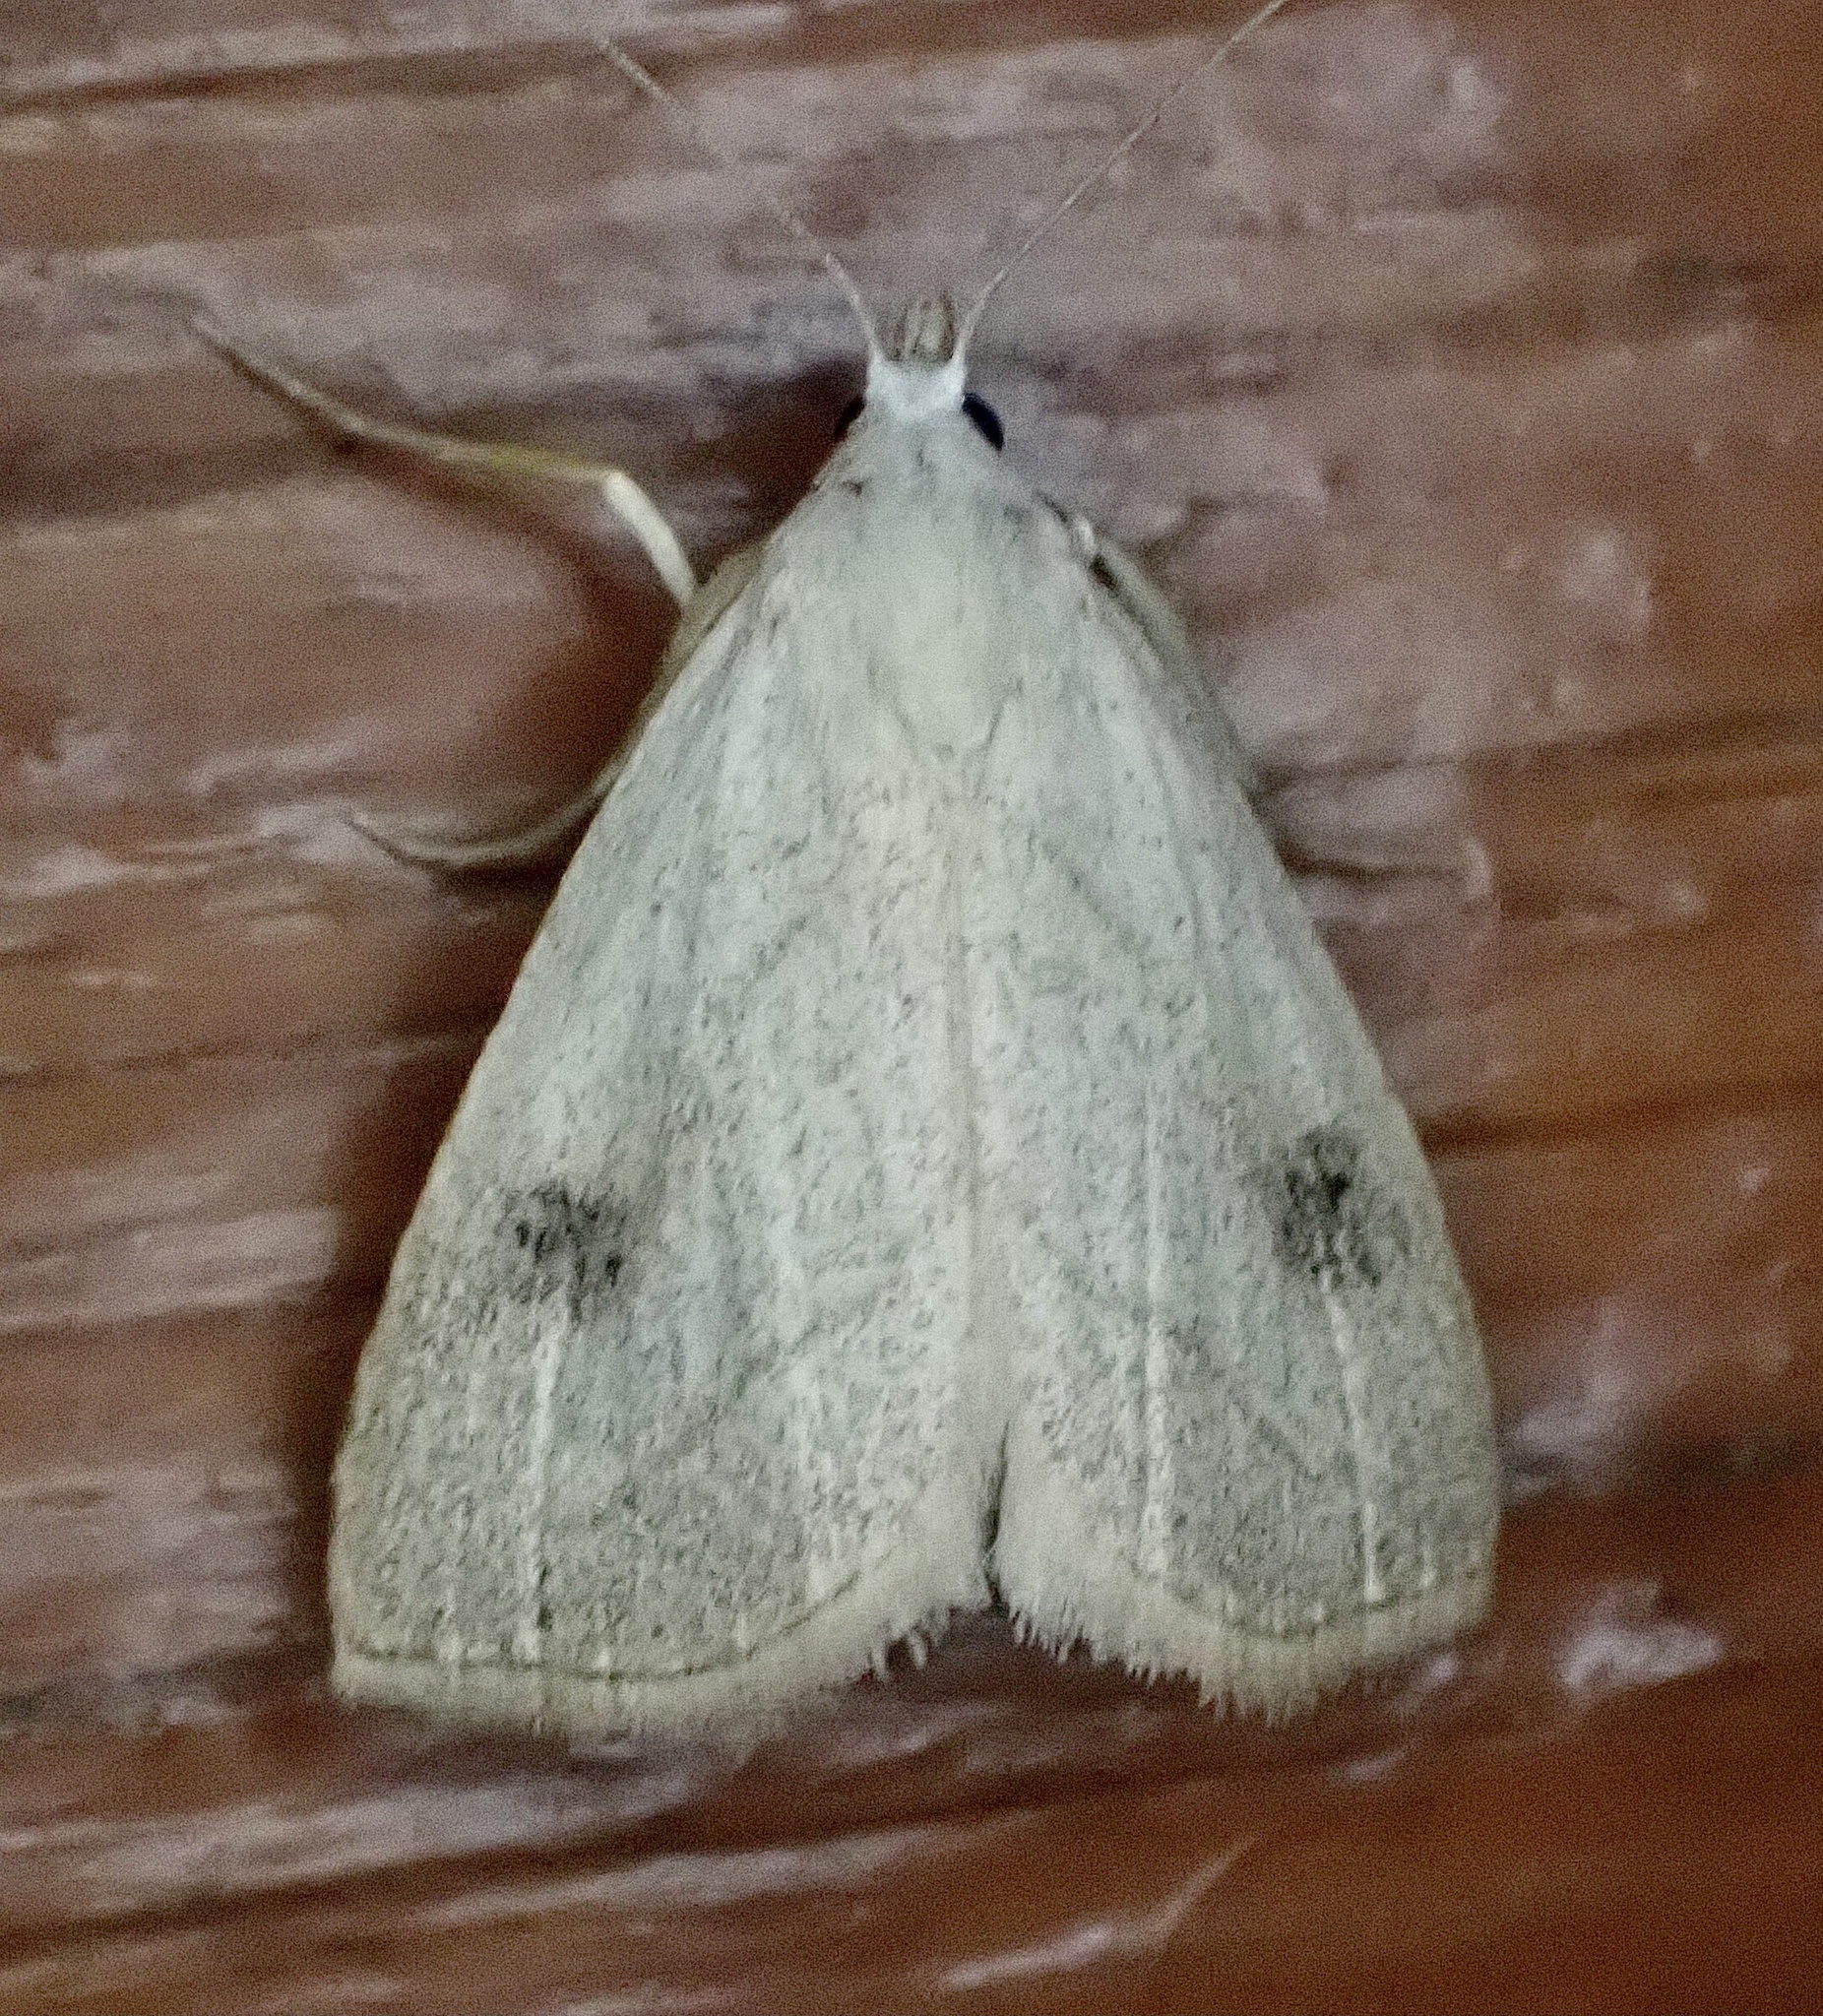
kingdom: Animalia
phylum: Arthropoda
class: Insecta
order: Lepidoptera
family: Erebidae
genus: Rivula
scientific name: Rivula propinqualis
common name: Spotted grass moth
